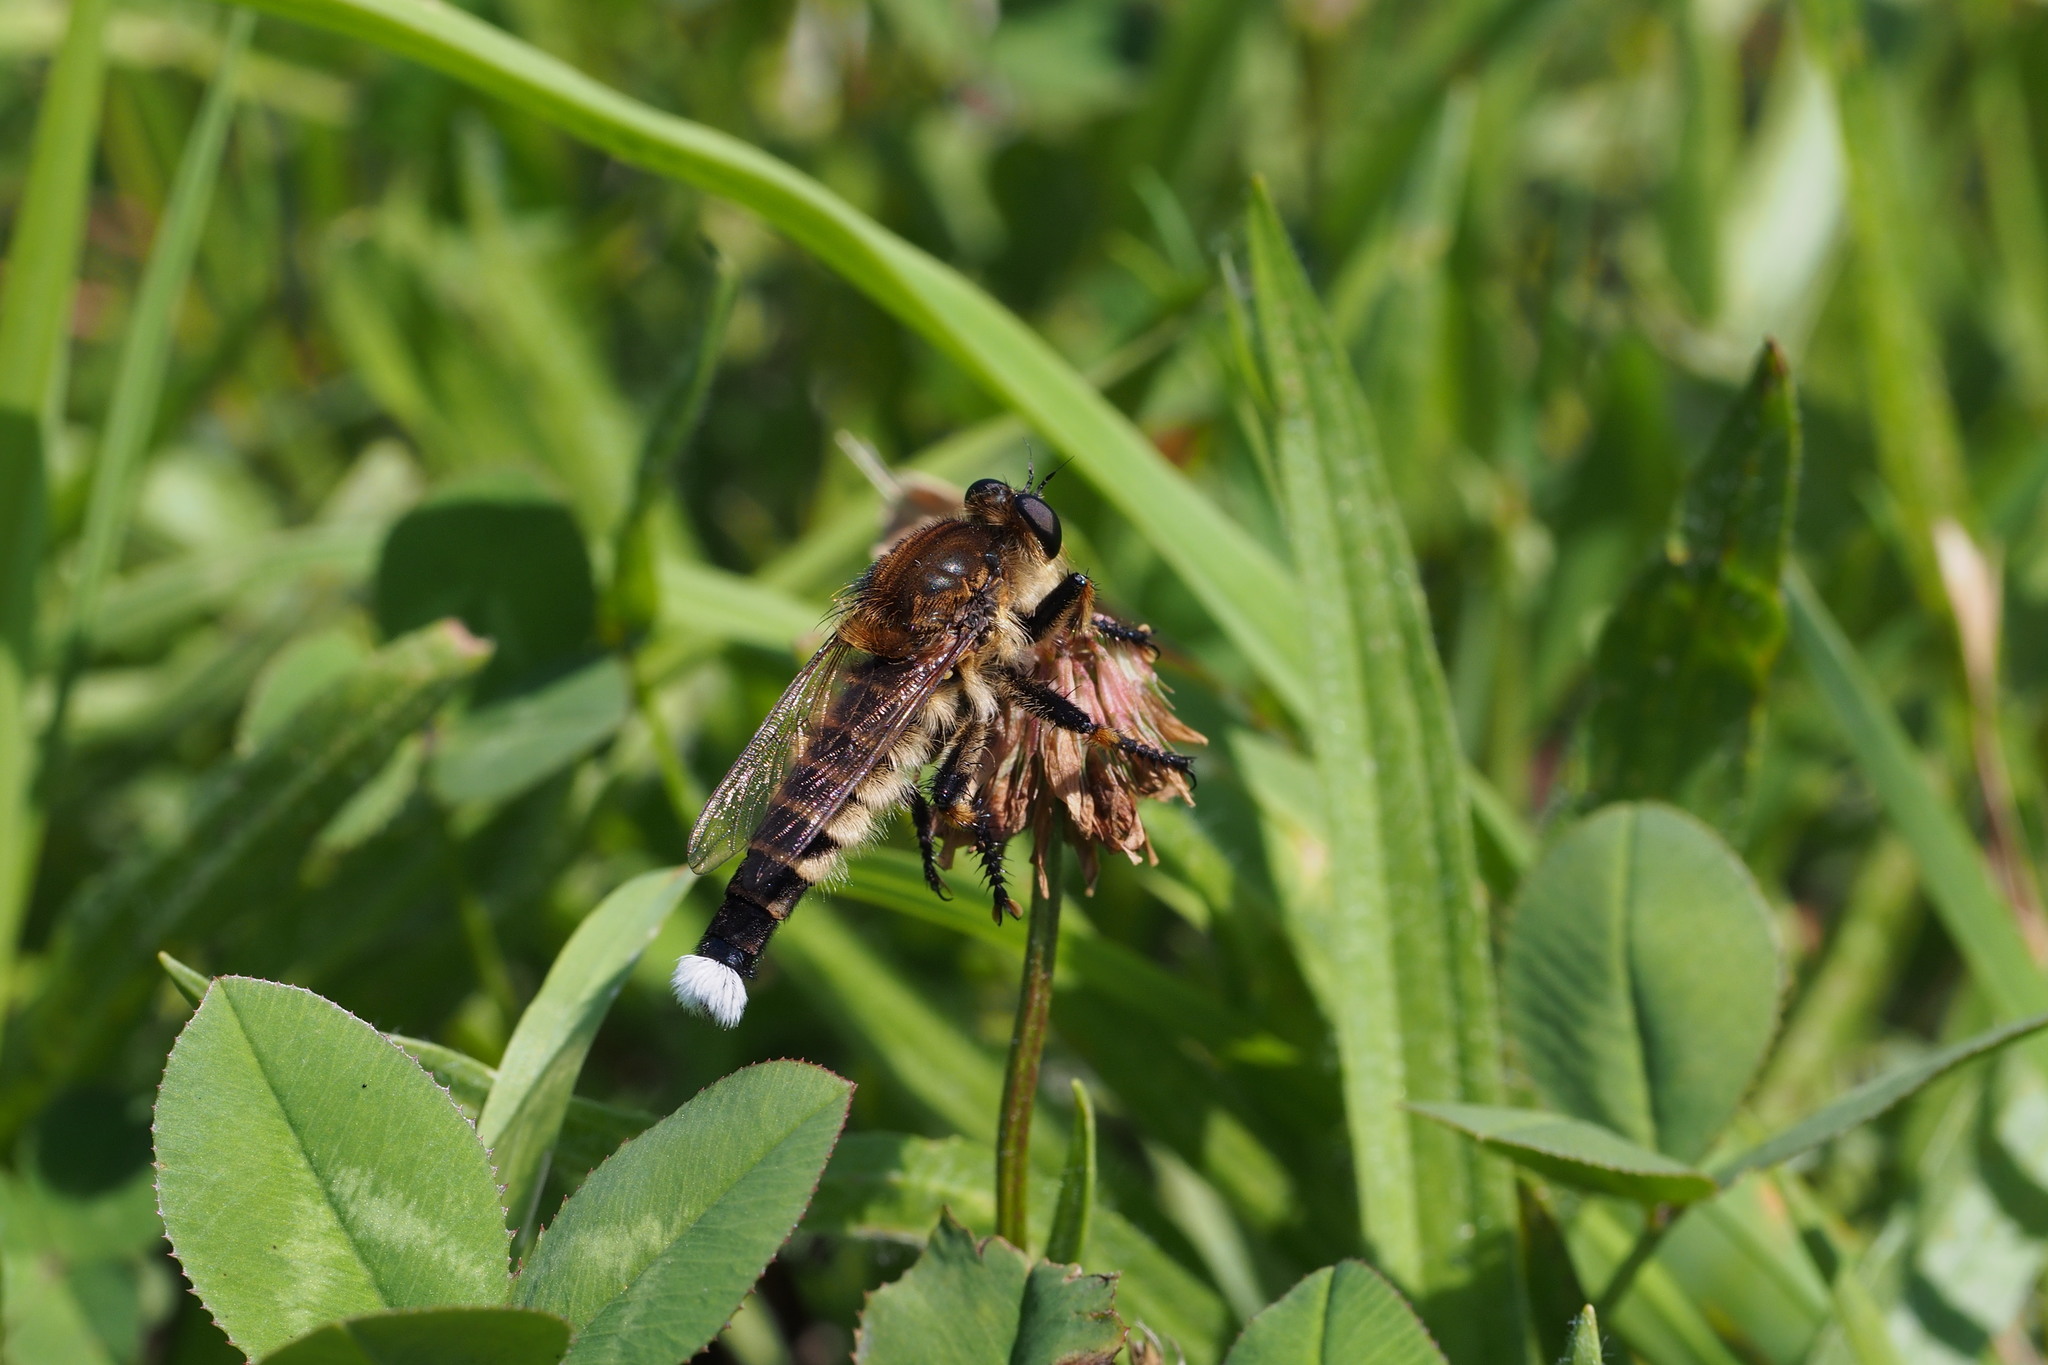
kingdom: Animalia
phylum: Arthropoda
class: Insecta
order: Diptera
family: Asilidae
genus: Promachus
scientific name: Promachus yesonicus
